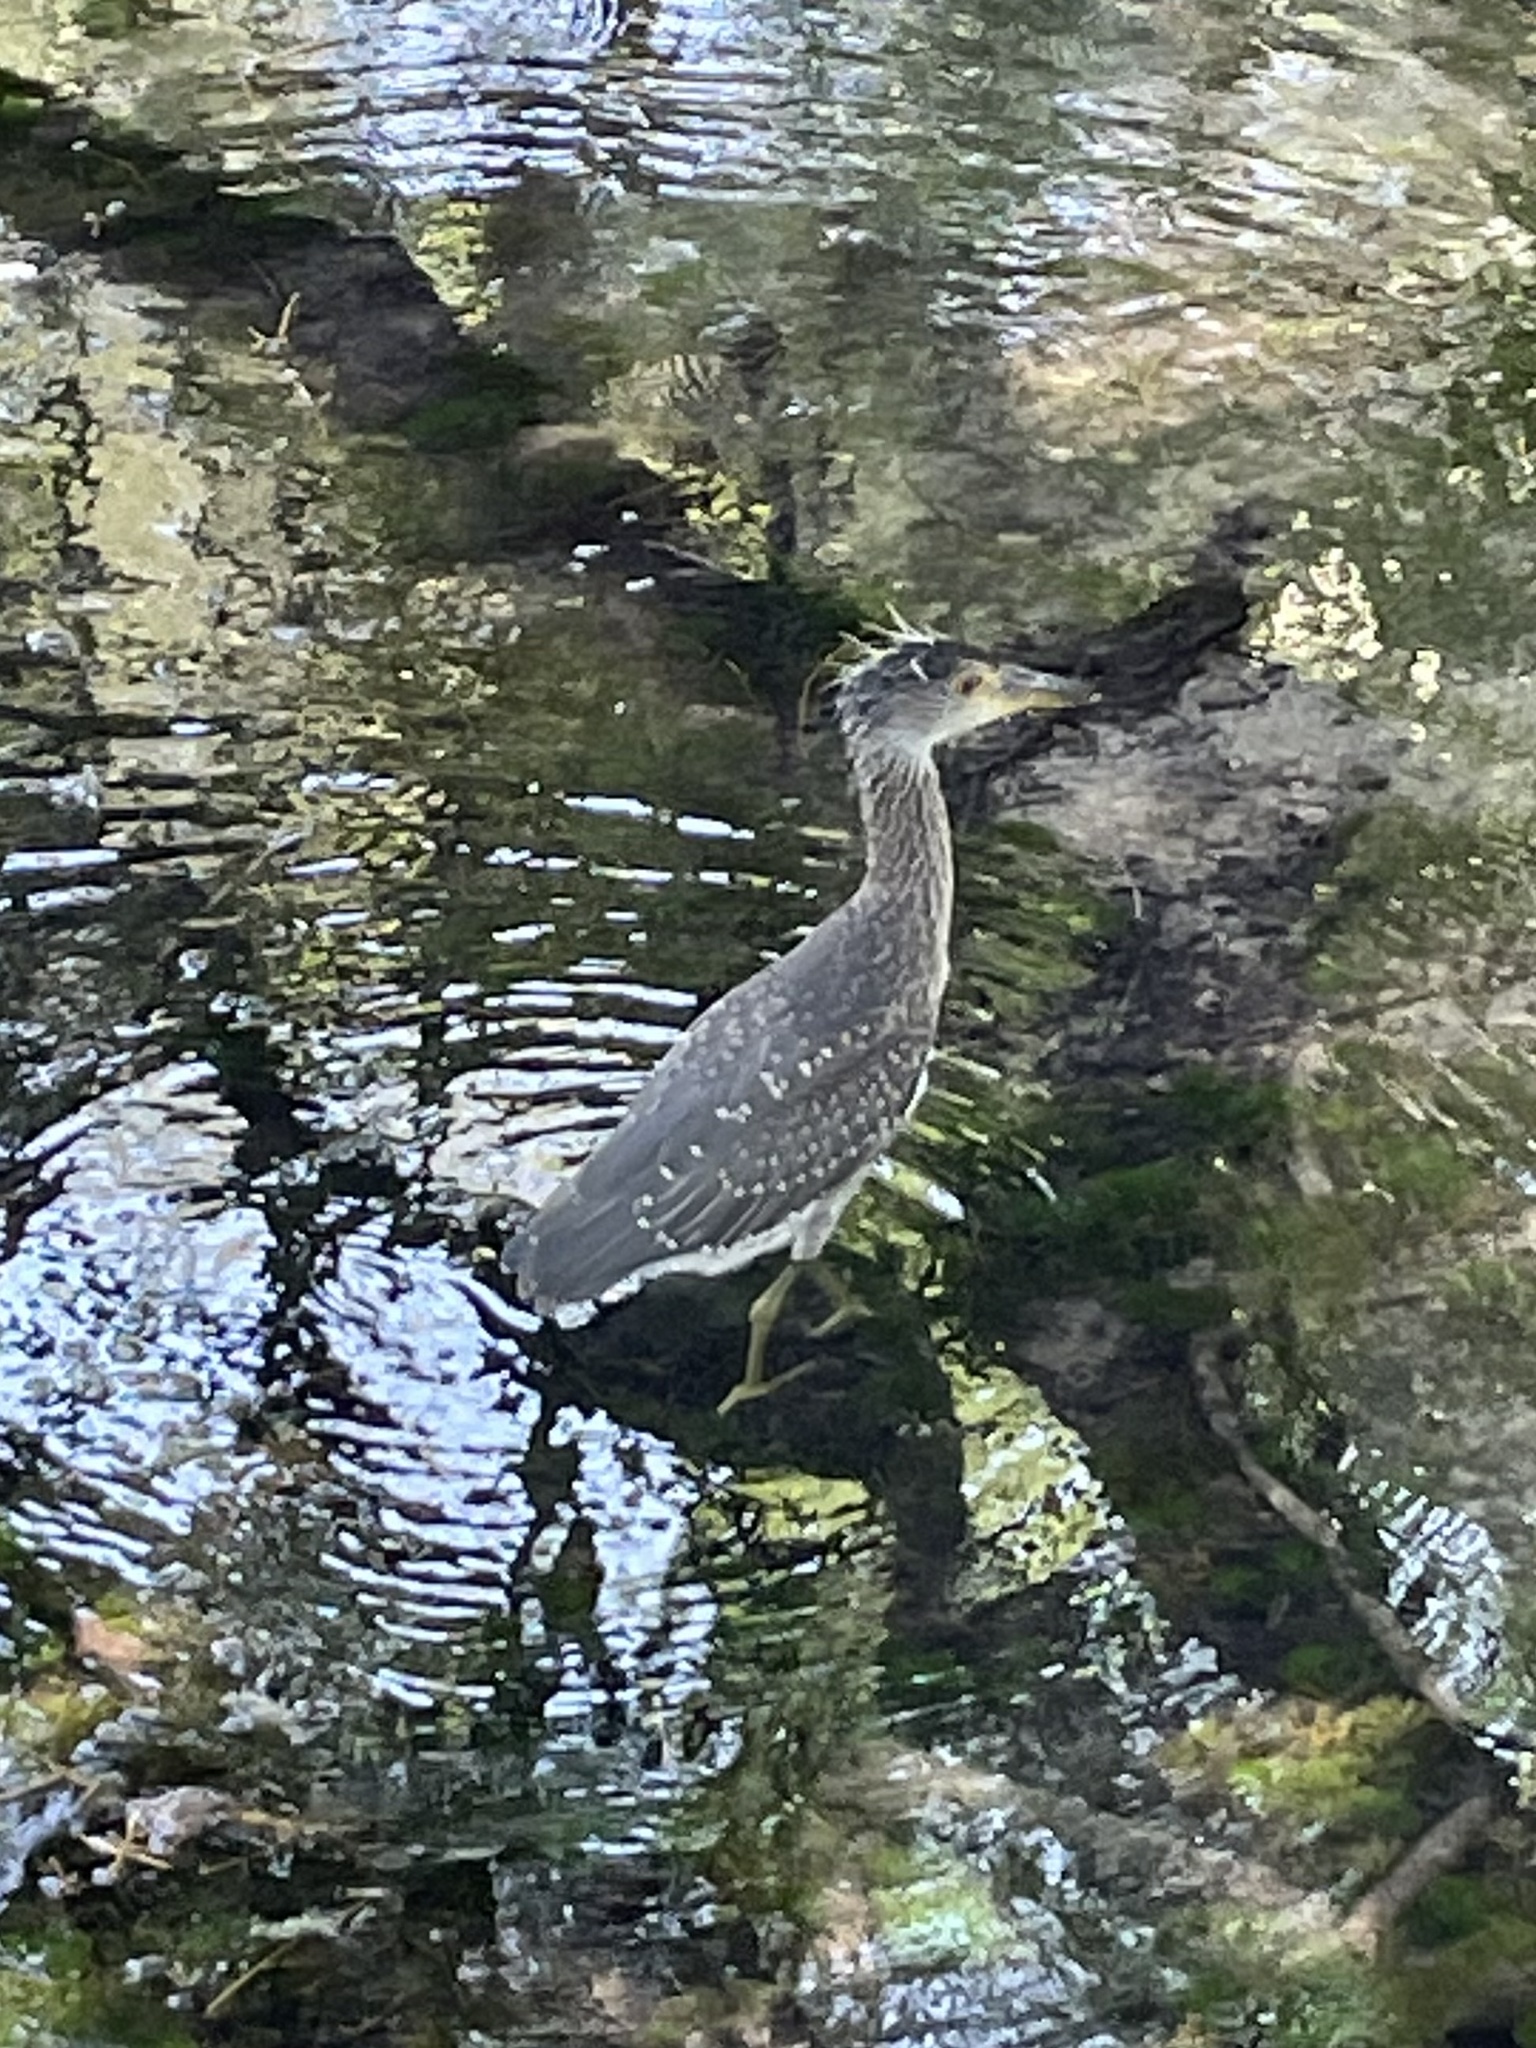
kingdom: Animalia
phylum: Chordata
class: Aves
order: Pelecaniformes
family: Ardeidae
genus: Nyctanassa
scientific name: Nyctanassa violacea
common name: Yellow-crowned night heron
